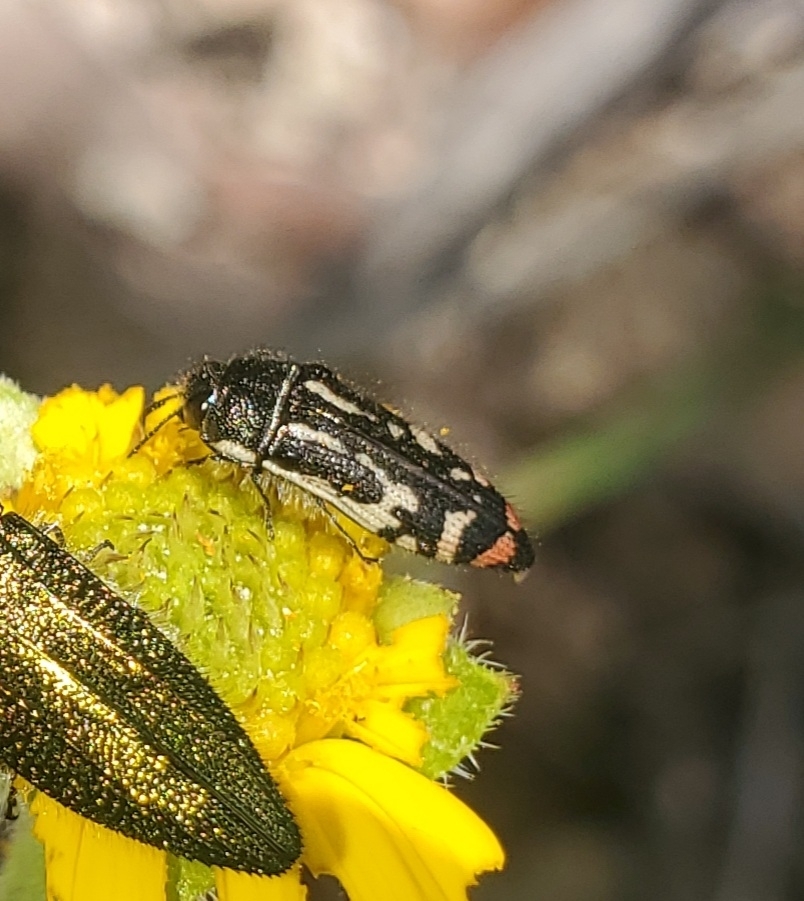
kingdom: Animalia
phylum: Arthropoda
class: Insecta
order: Coleoptera
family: Buprestidae
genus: Acmaeodera
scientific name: Acmaeodera amabilis
